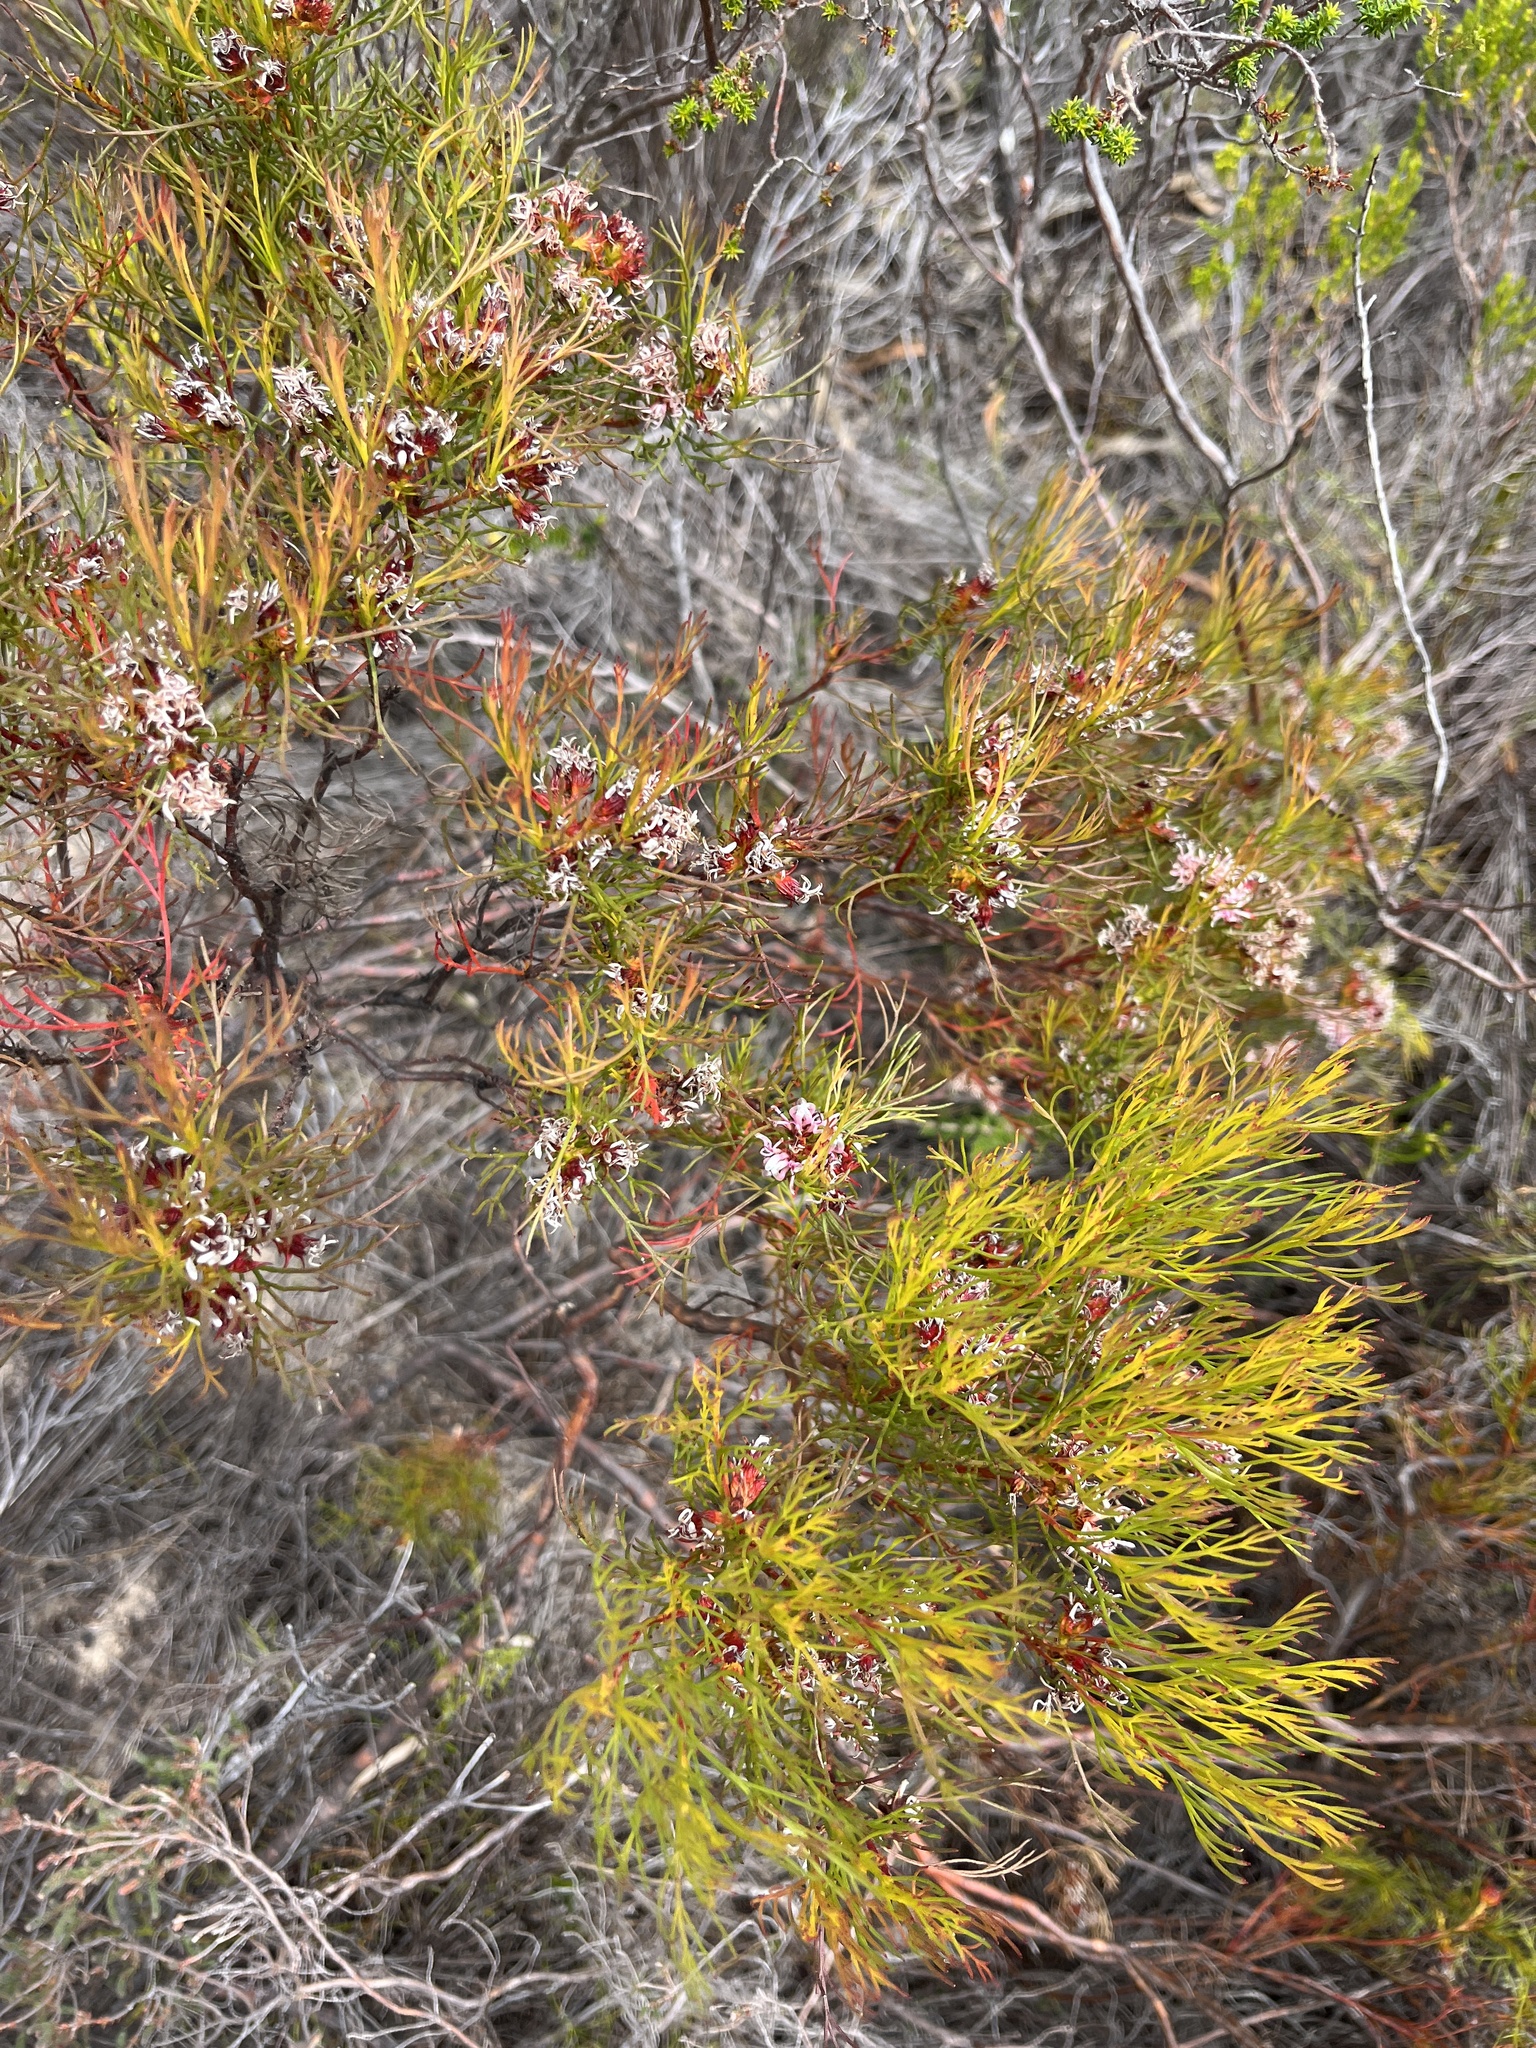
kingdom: Plantae
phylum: Tracheophyta
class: Magnoliopsida
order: Proteales
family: Proteaceae
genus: Serruria
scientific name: Serruria bolusii
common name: Agulhas spiderhead
